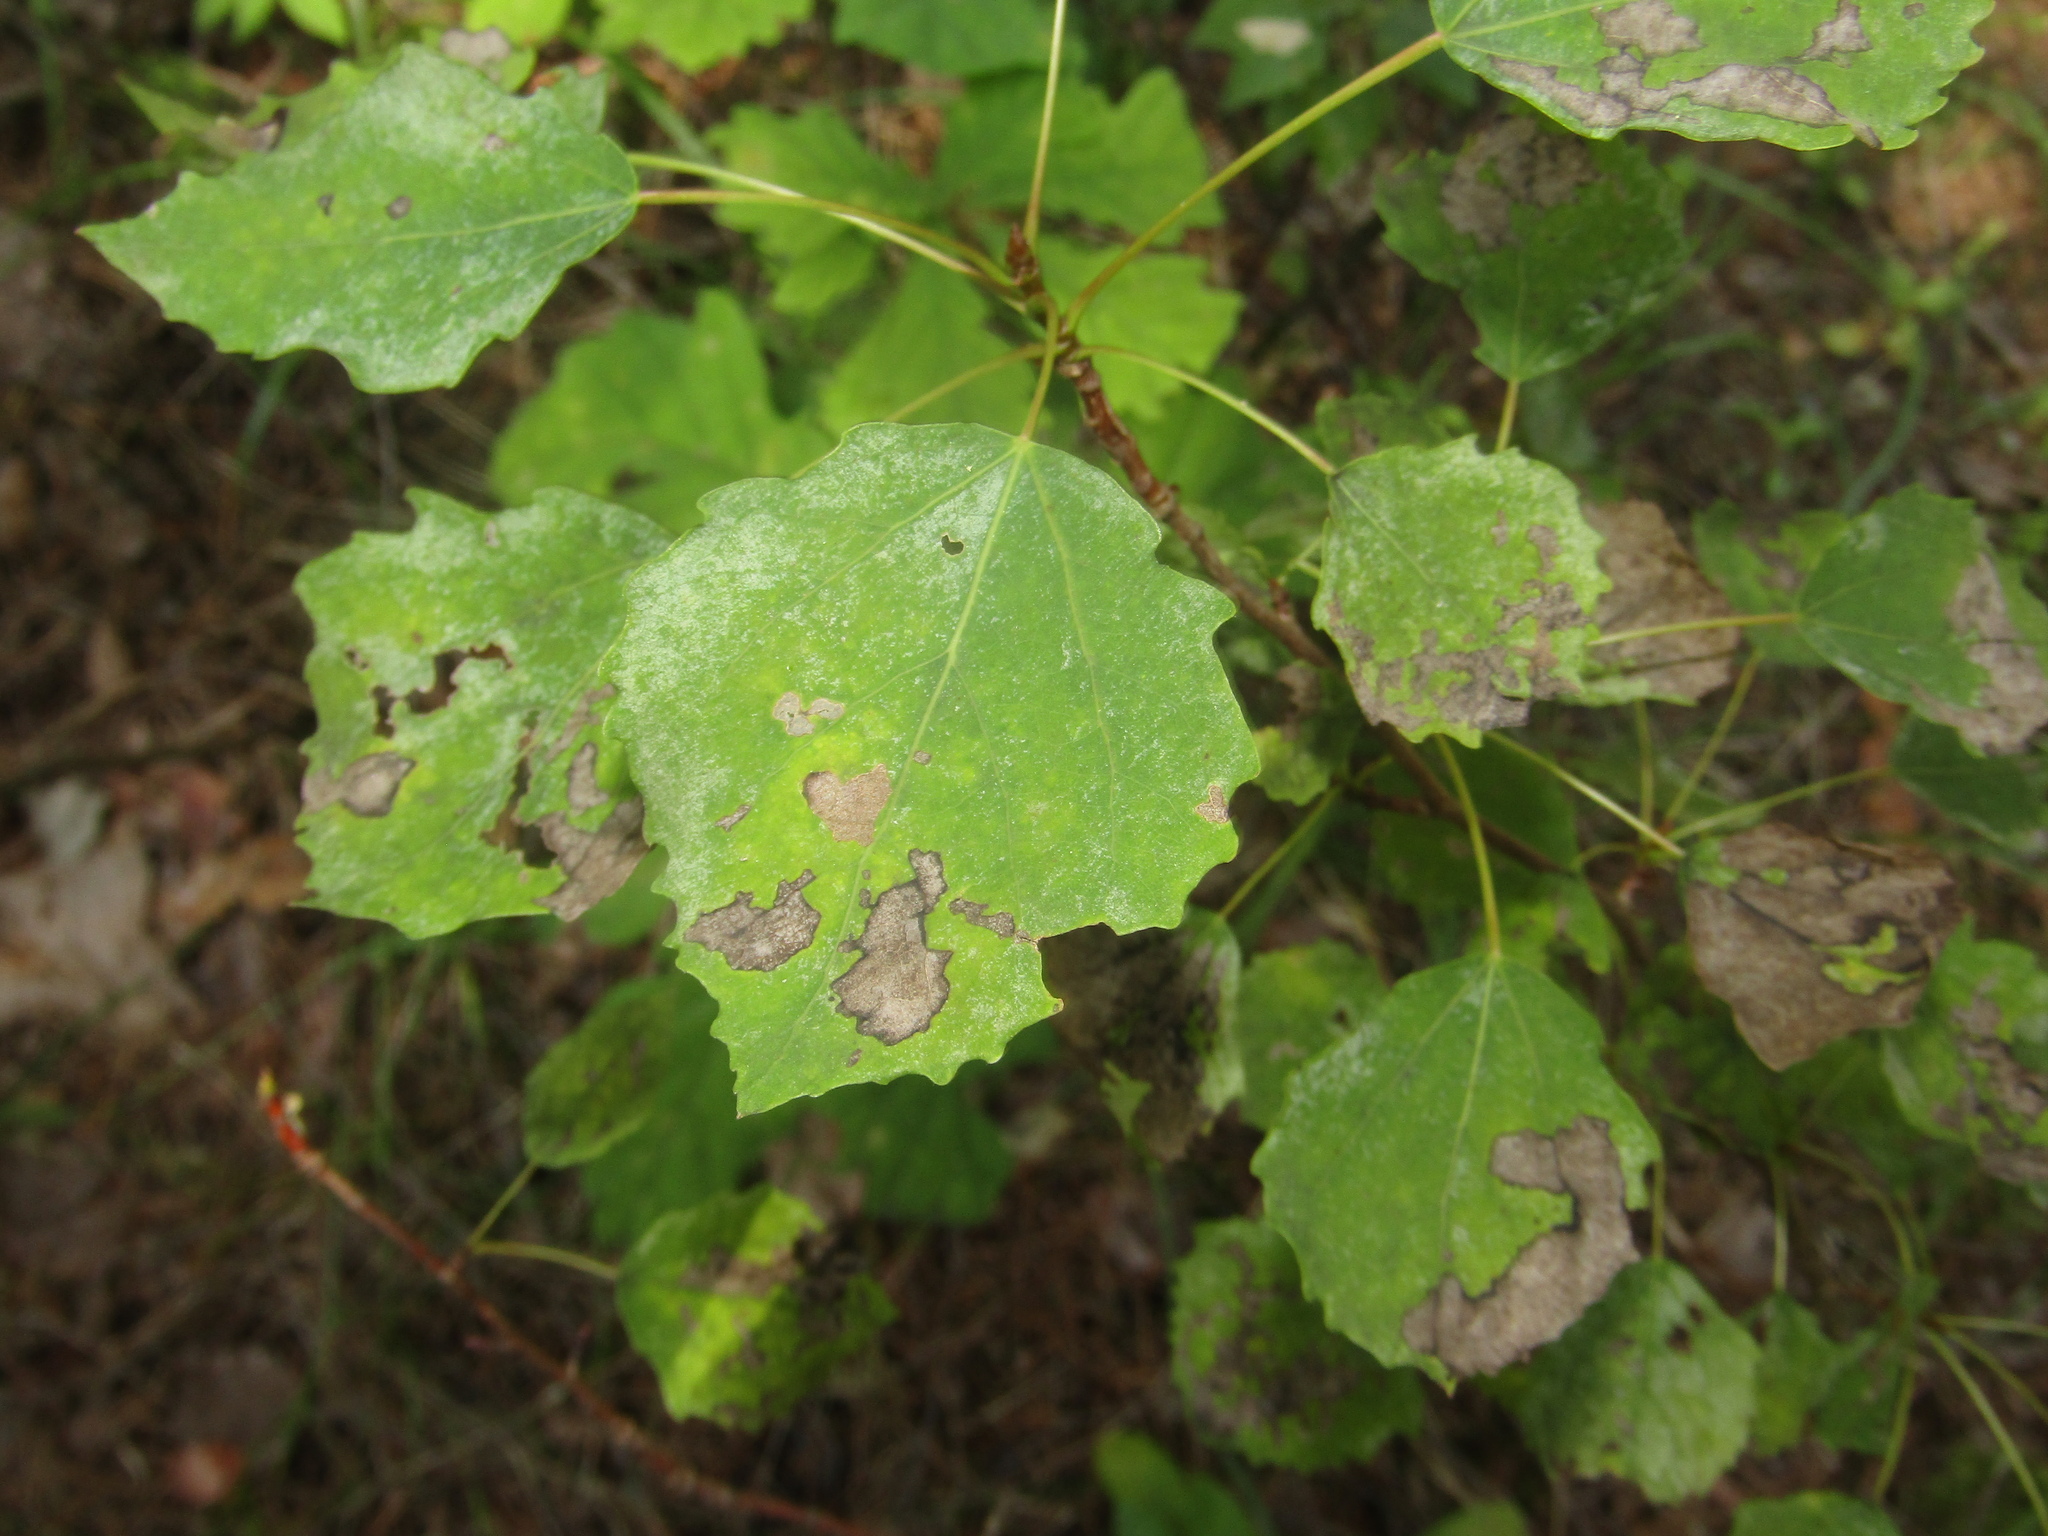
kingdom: Plantae
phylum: Tracheophyta
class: Magnoliopsida
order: Malpighiales
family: Salicaceae
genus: Populus
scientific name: Populus tremula
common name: European aspen
